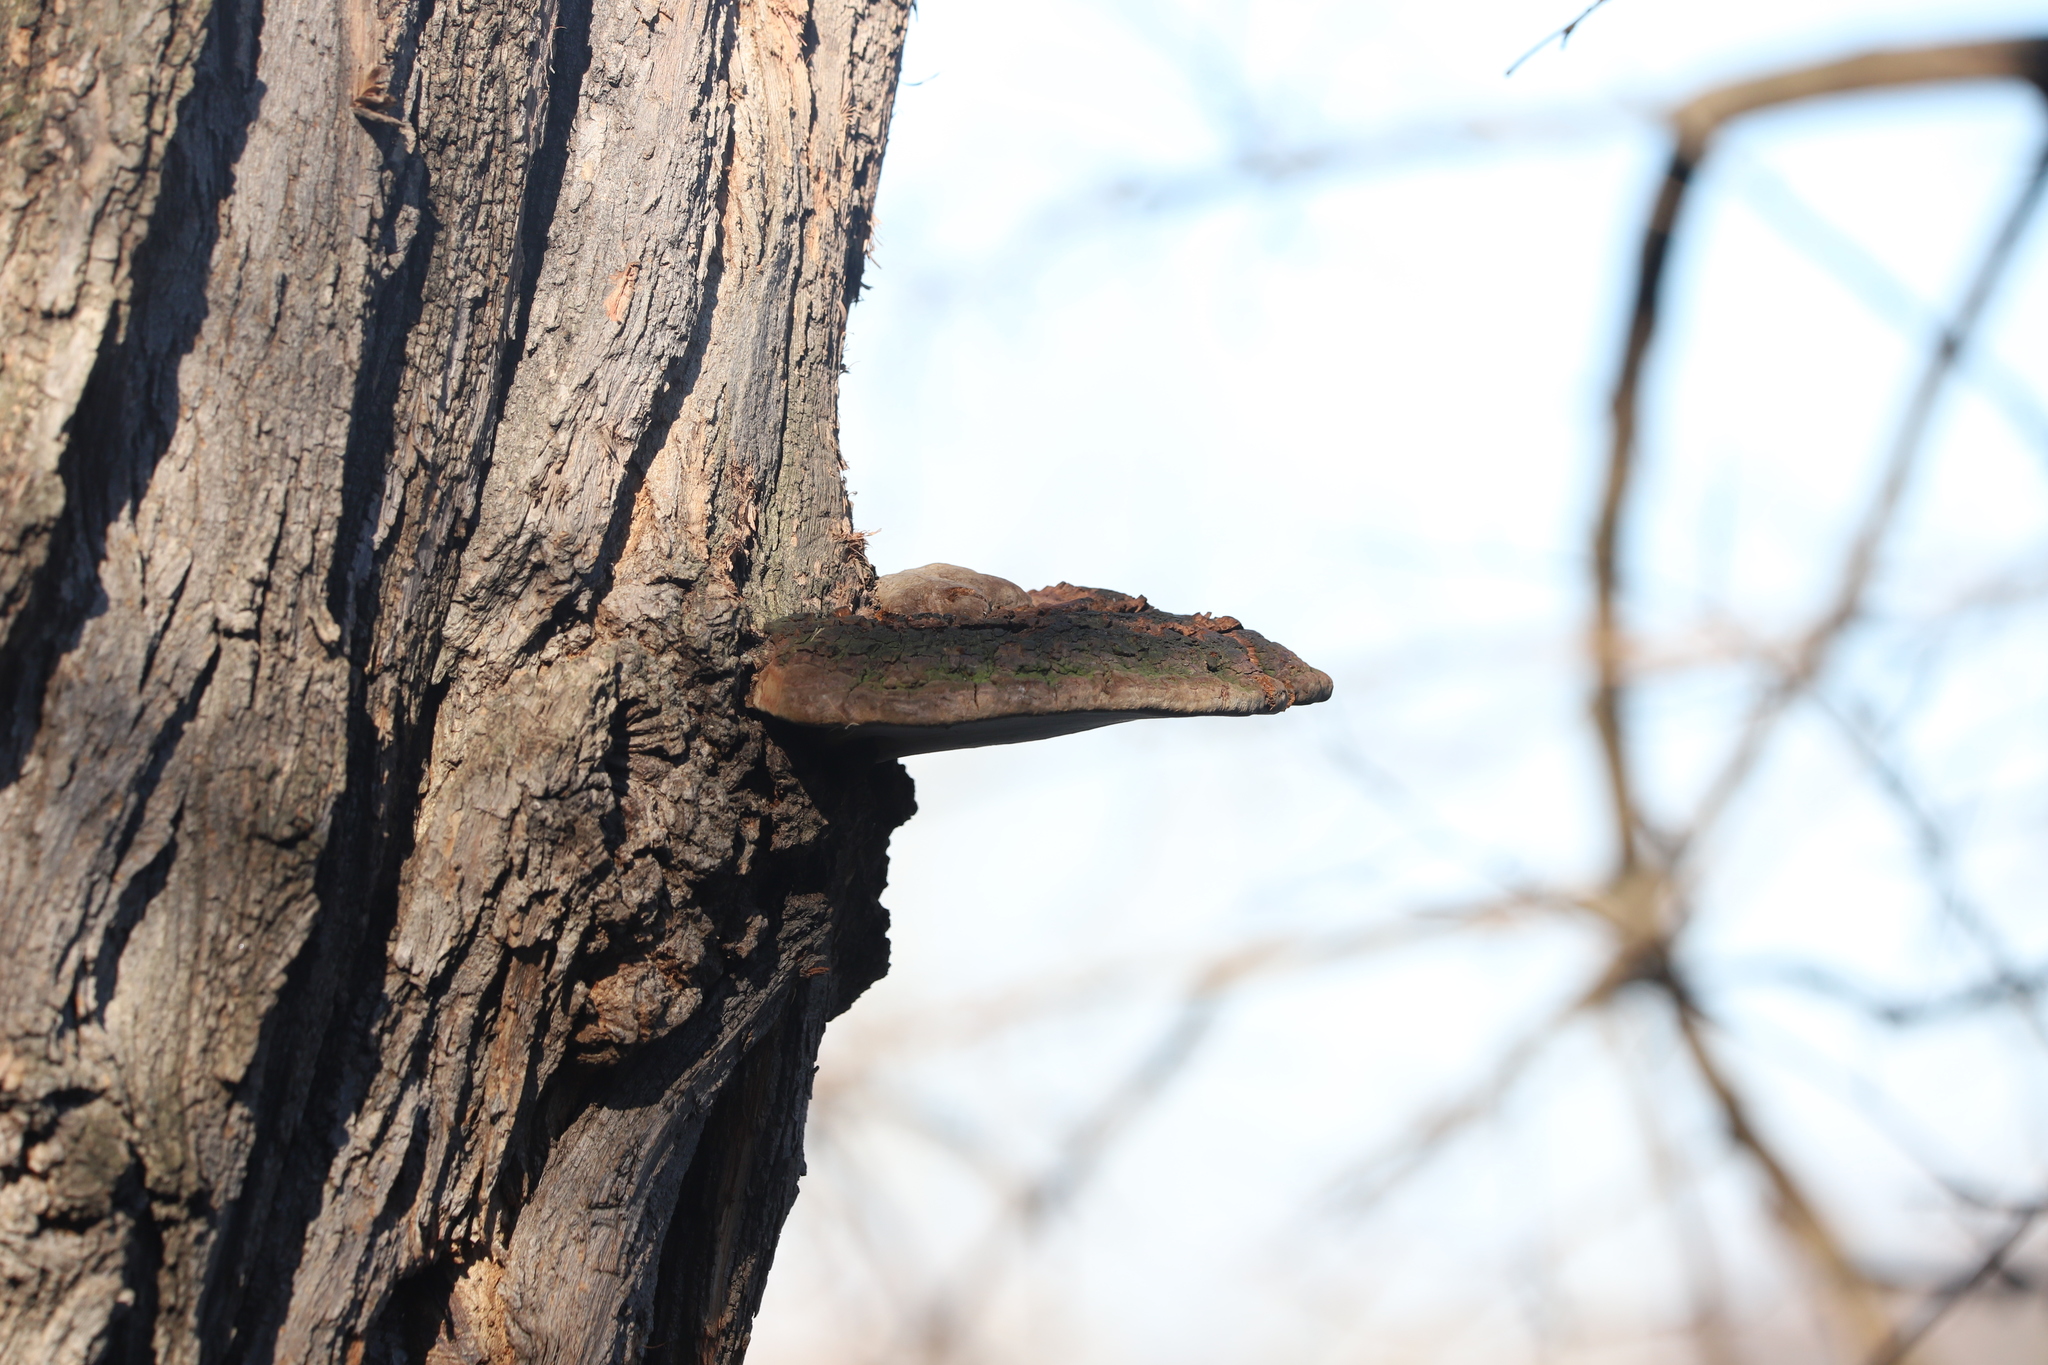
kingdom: Fungi
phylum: Basidiomycota
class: Agaricomycetes
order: Hymenochaetales
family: Hymenochaetaceae
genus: Phellinus
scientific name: Phellinus robiniae
